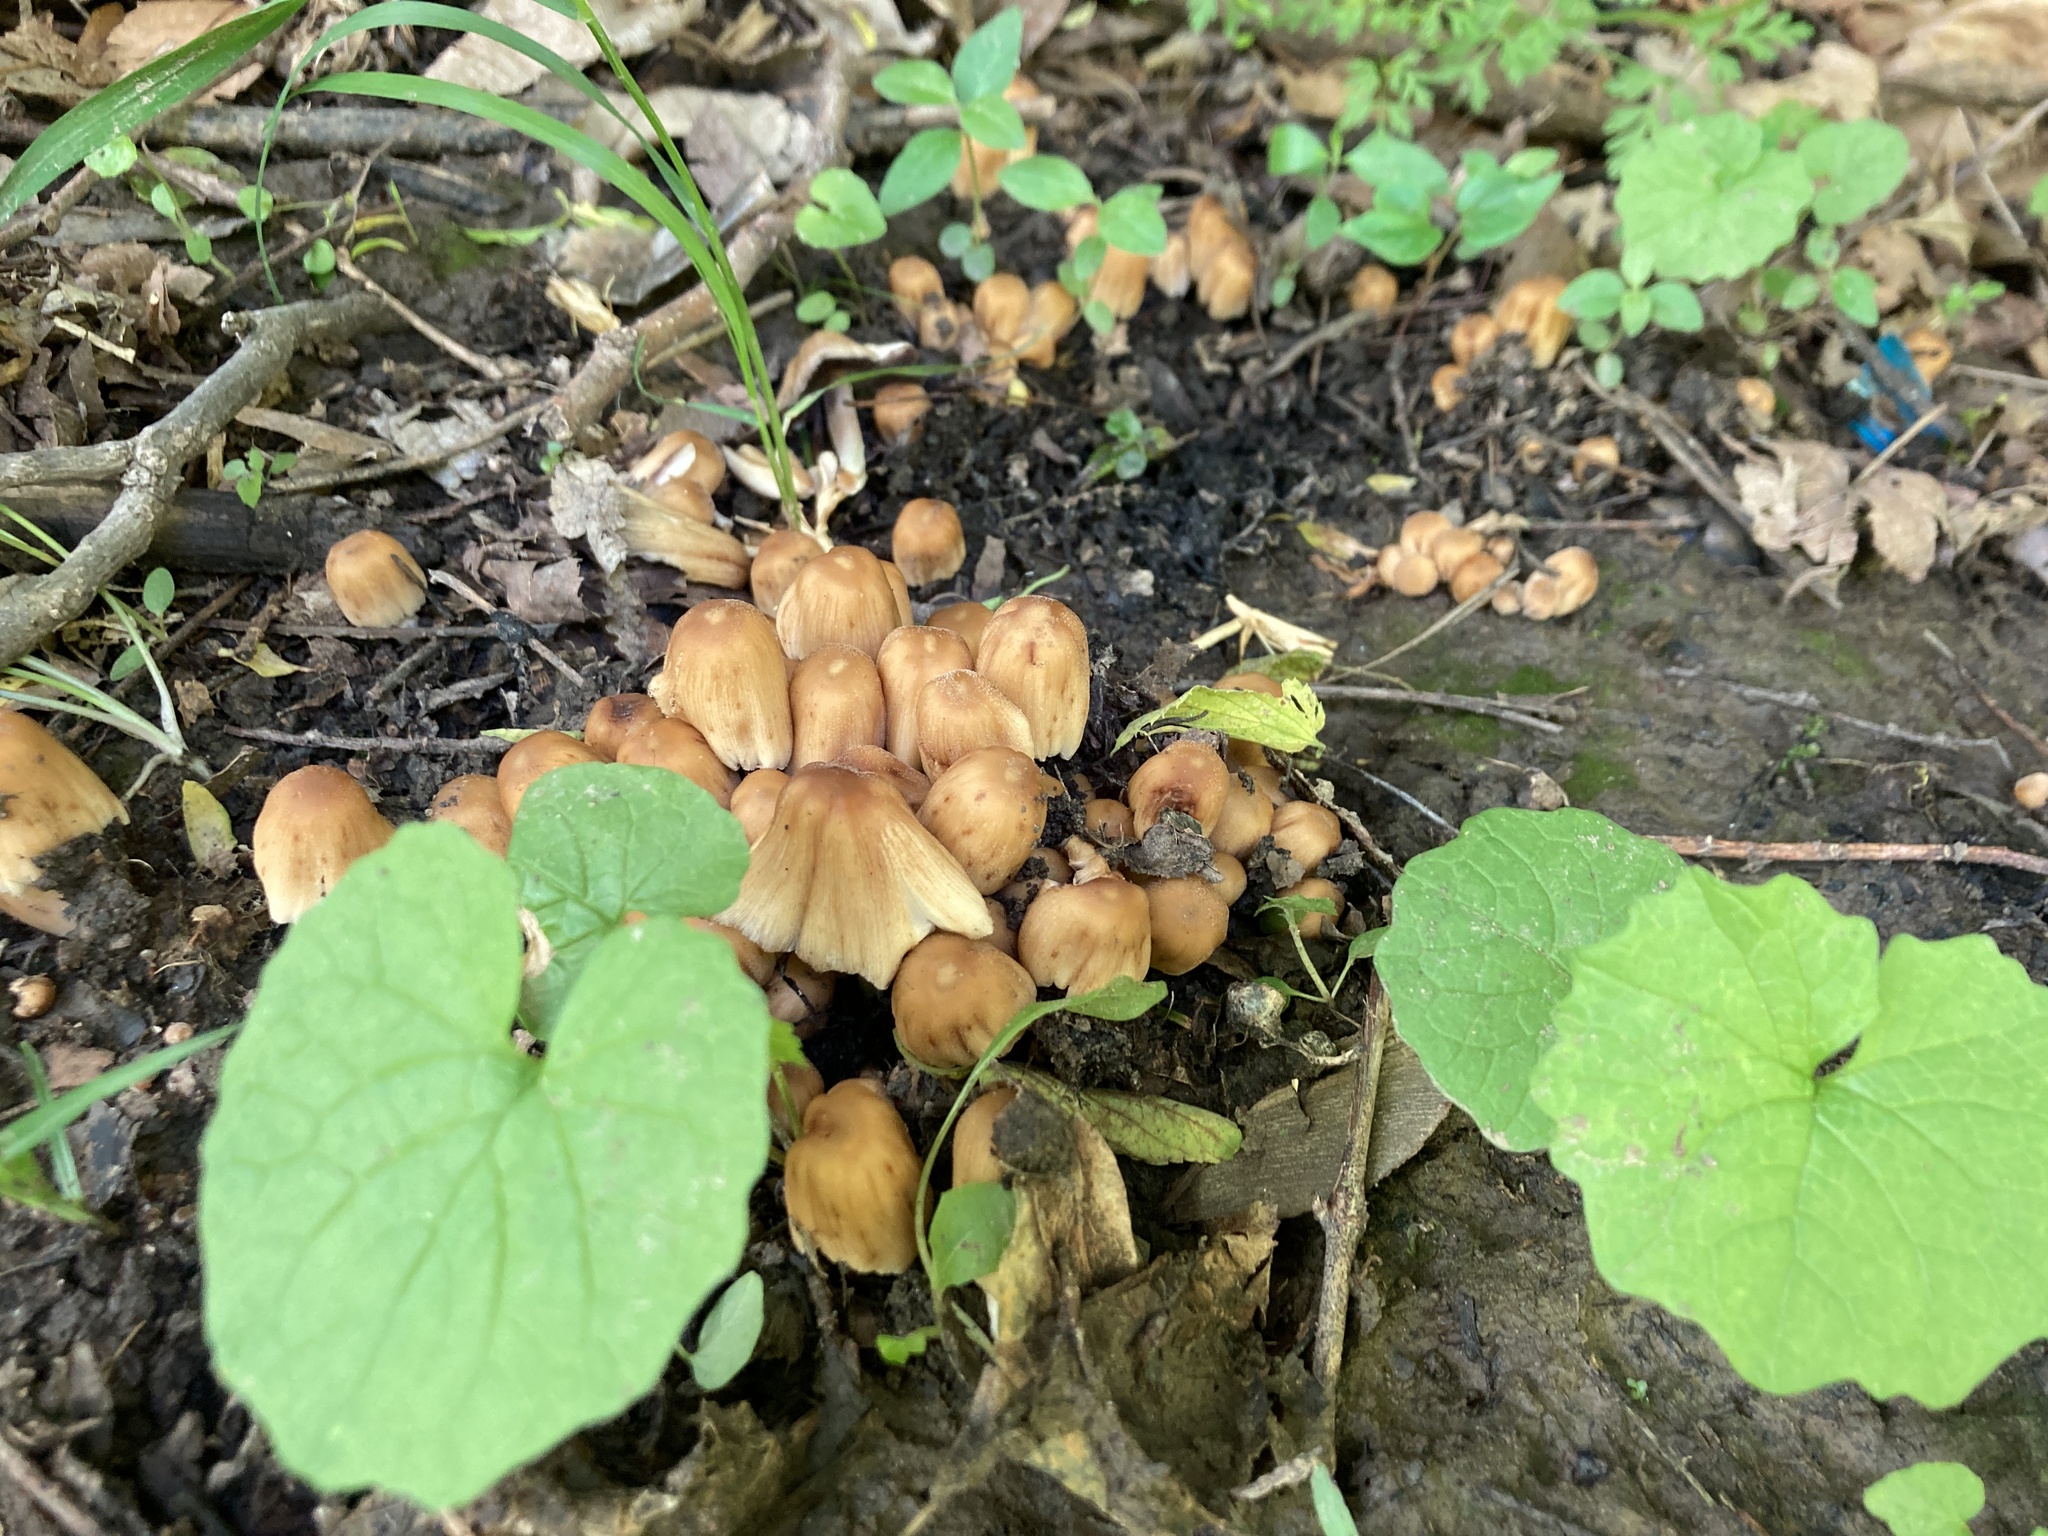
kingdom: Fungi
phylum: Basidiomycota
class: Agaricomycetes
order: Agaricales
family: Psathyrellaceae
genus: Coprinellus
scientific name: Coprinellus micaceus
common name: Glistening ink-cap
